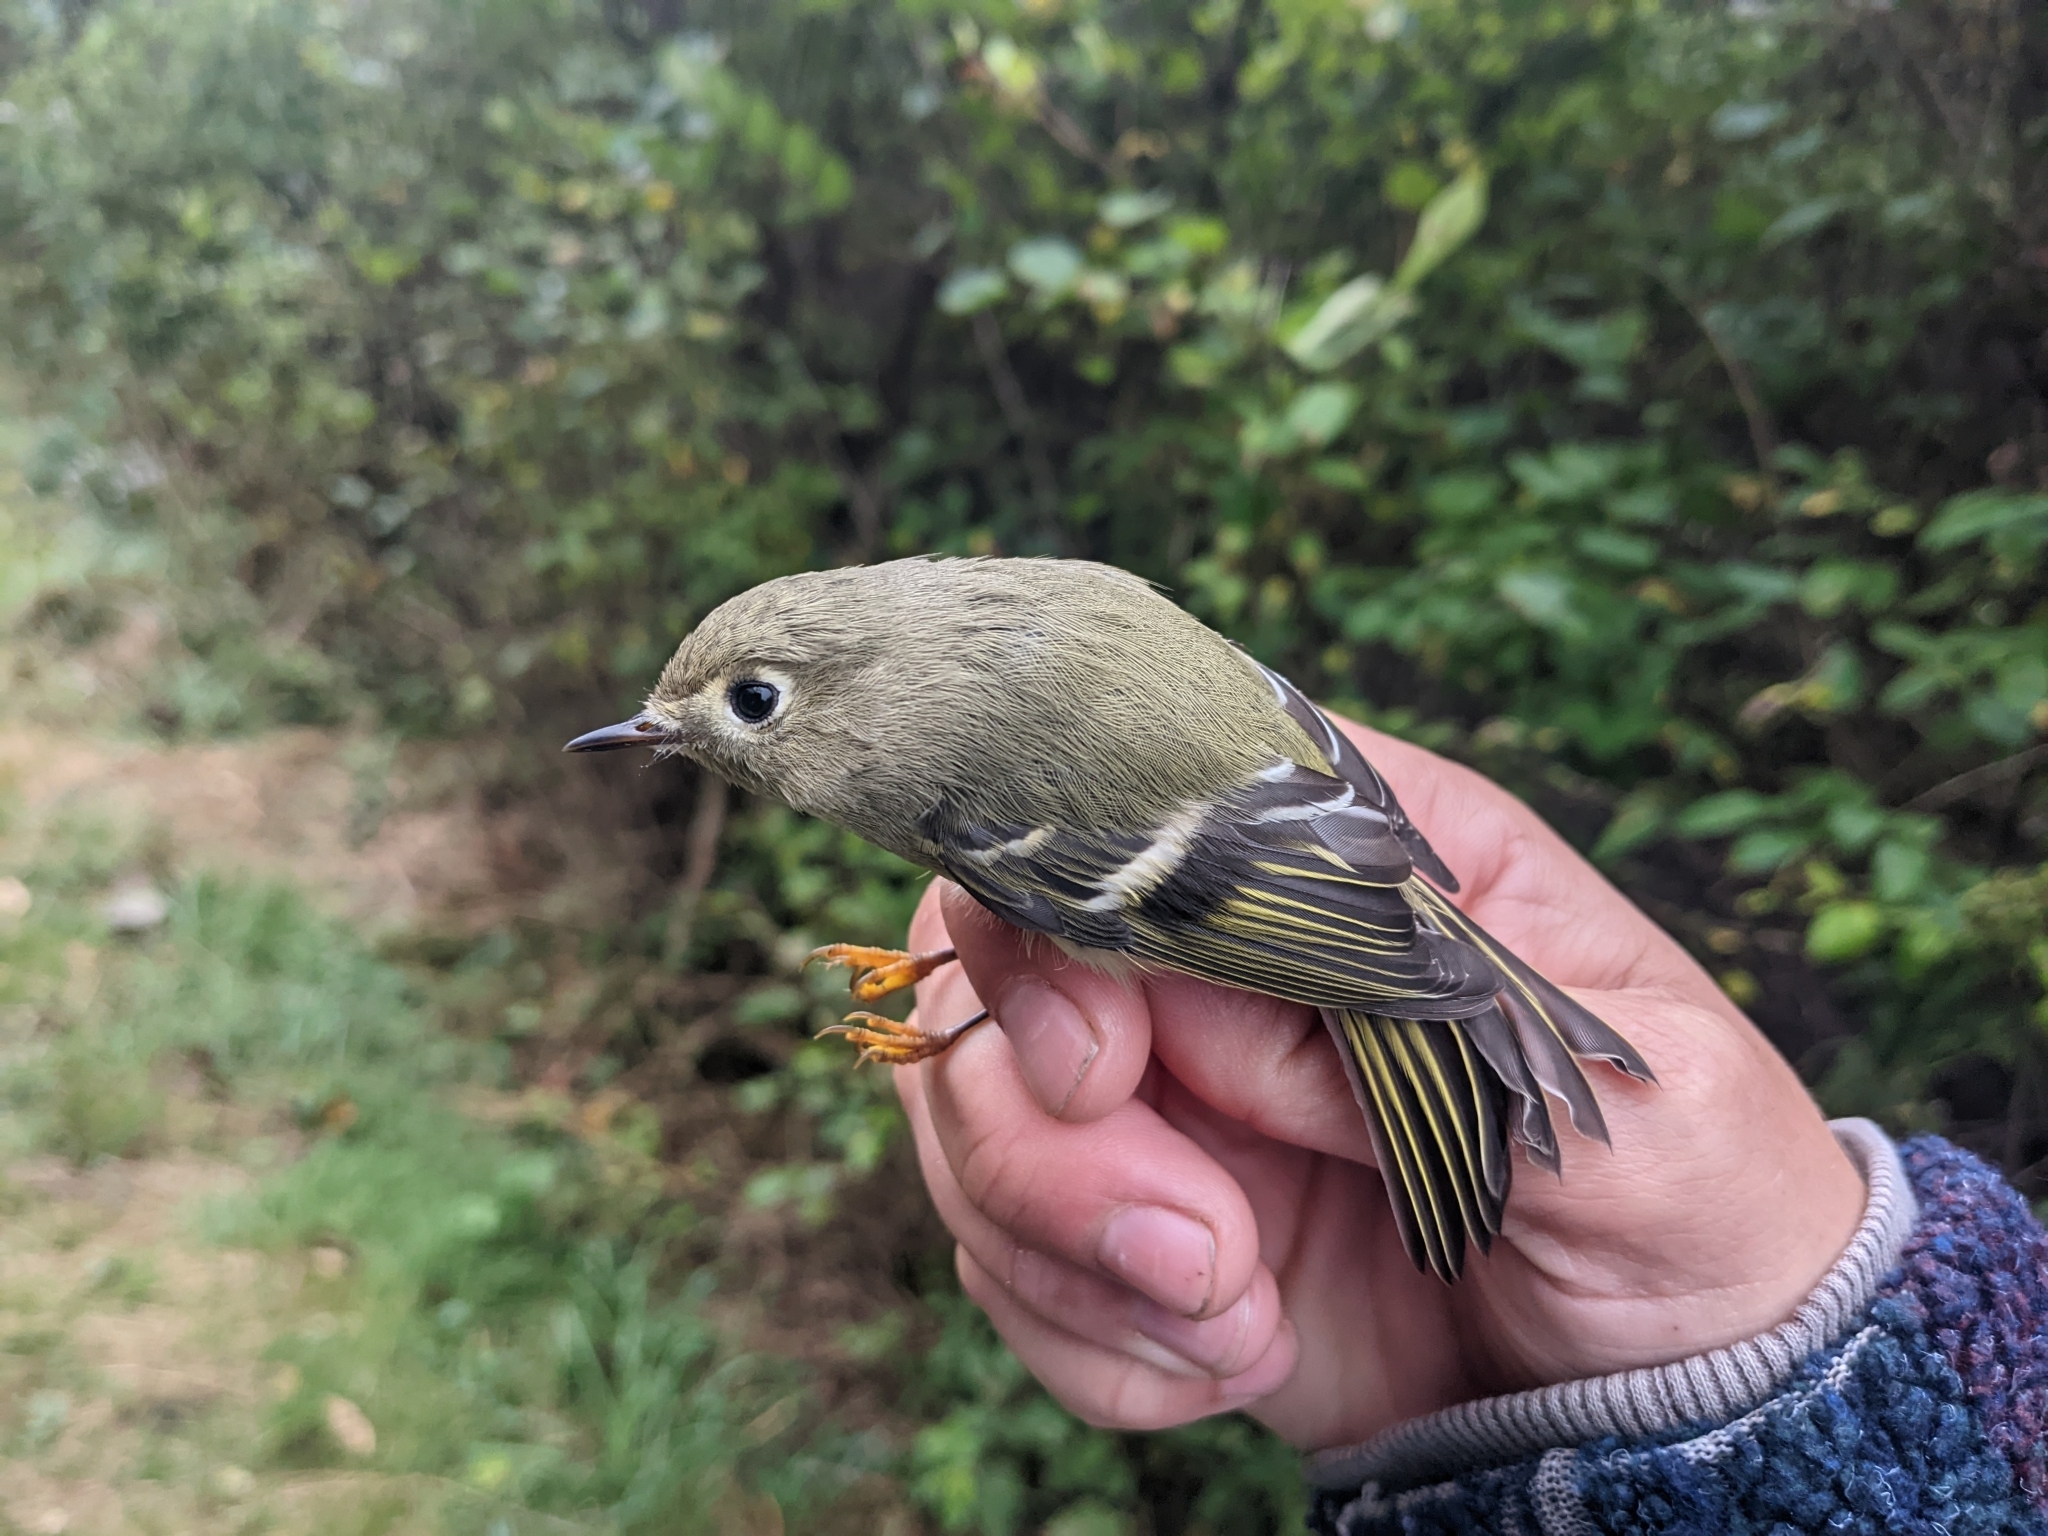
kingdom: Animalia
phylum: Chordata
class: Aves
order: Passeriformes
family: Regulidae
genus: Regulus
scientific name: Regulus calendula
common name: Ruby-crowned kinglet
